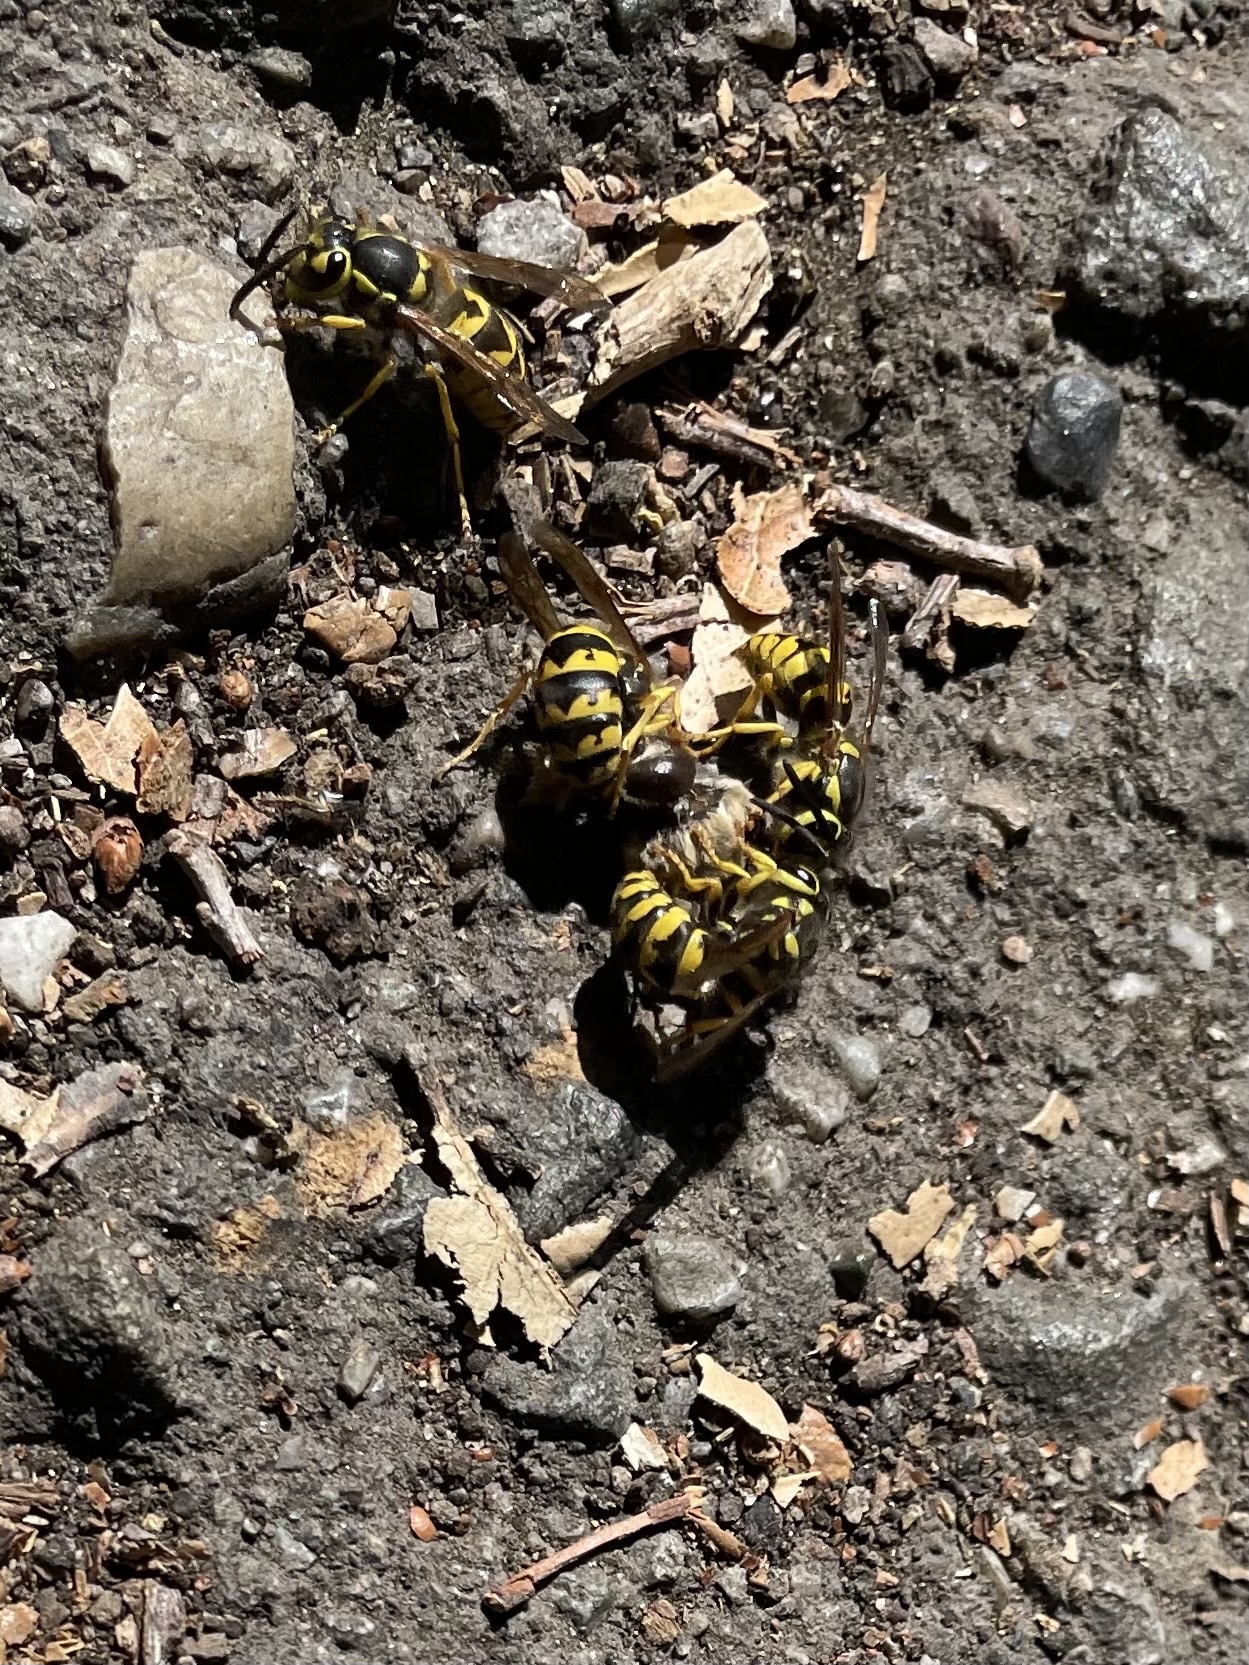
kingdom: Animalia
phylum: Arthropoda
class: Insecta
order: Hymenoptera
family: Vespidae
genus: Vespula
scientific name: Vespula pensylvanica
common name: Western yellowjacket
